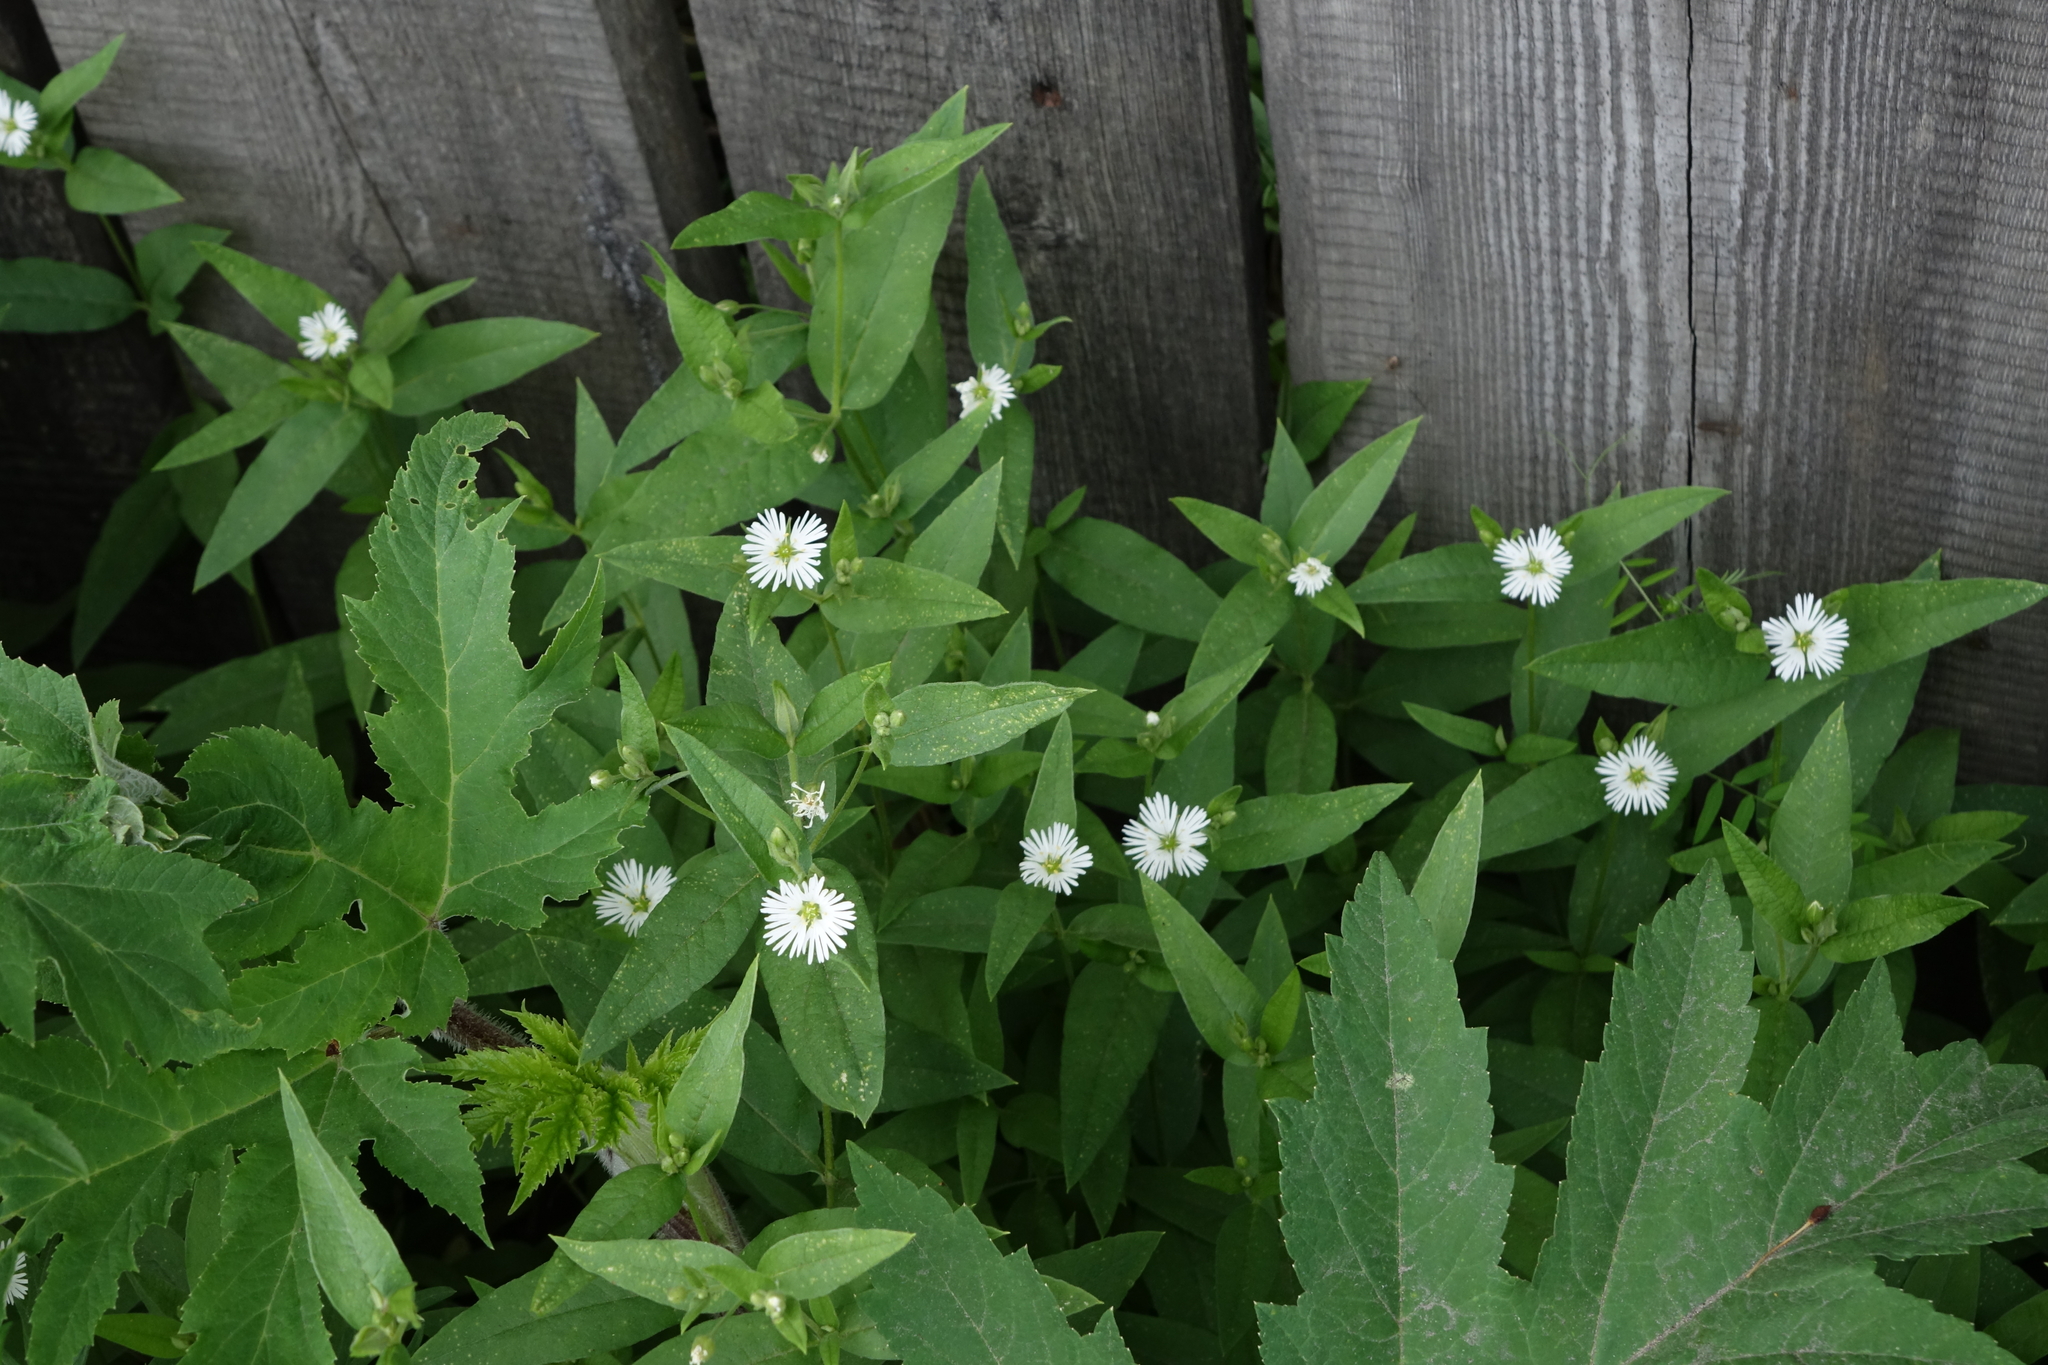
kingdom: Plantae
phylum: Tracheophyta
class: Magnoliopsida
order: Caryophyllales
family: Caryophyllaceae
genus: Stellaria
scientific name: Stellaria radians
